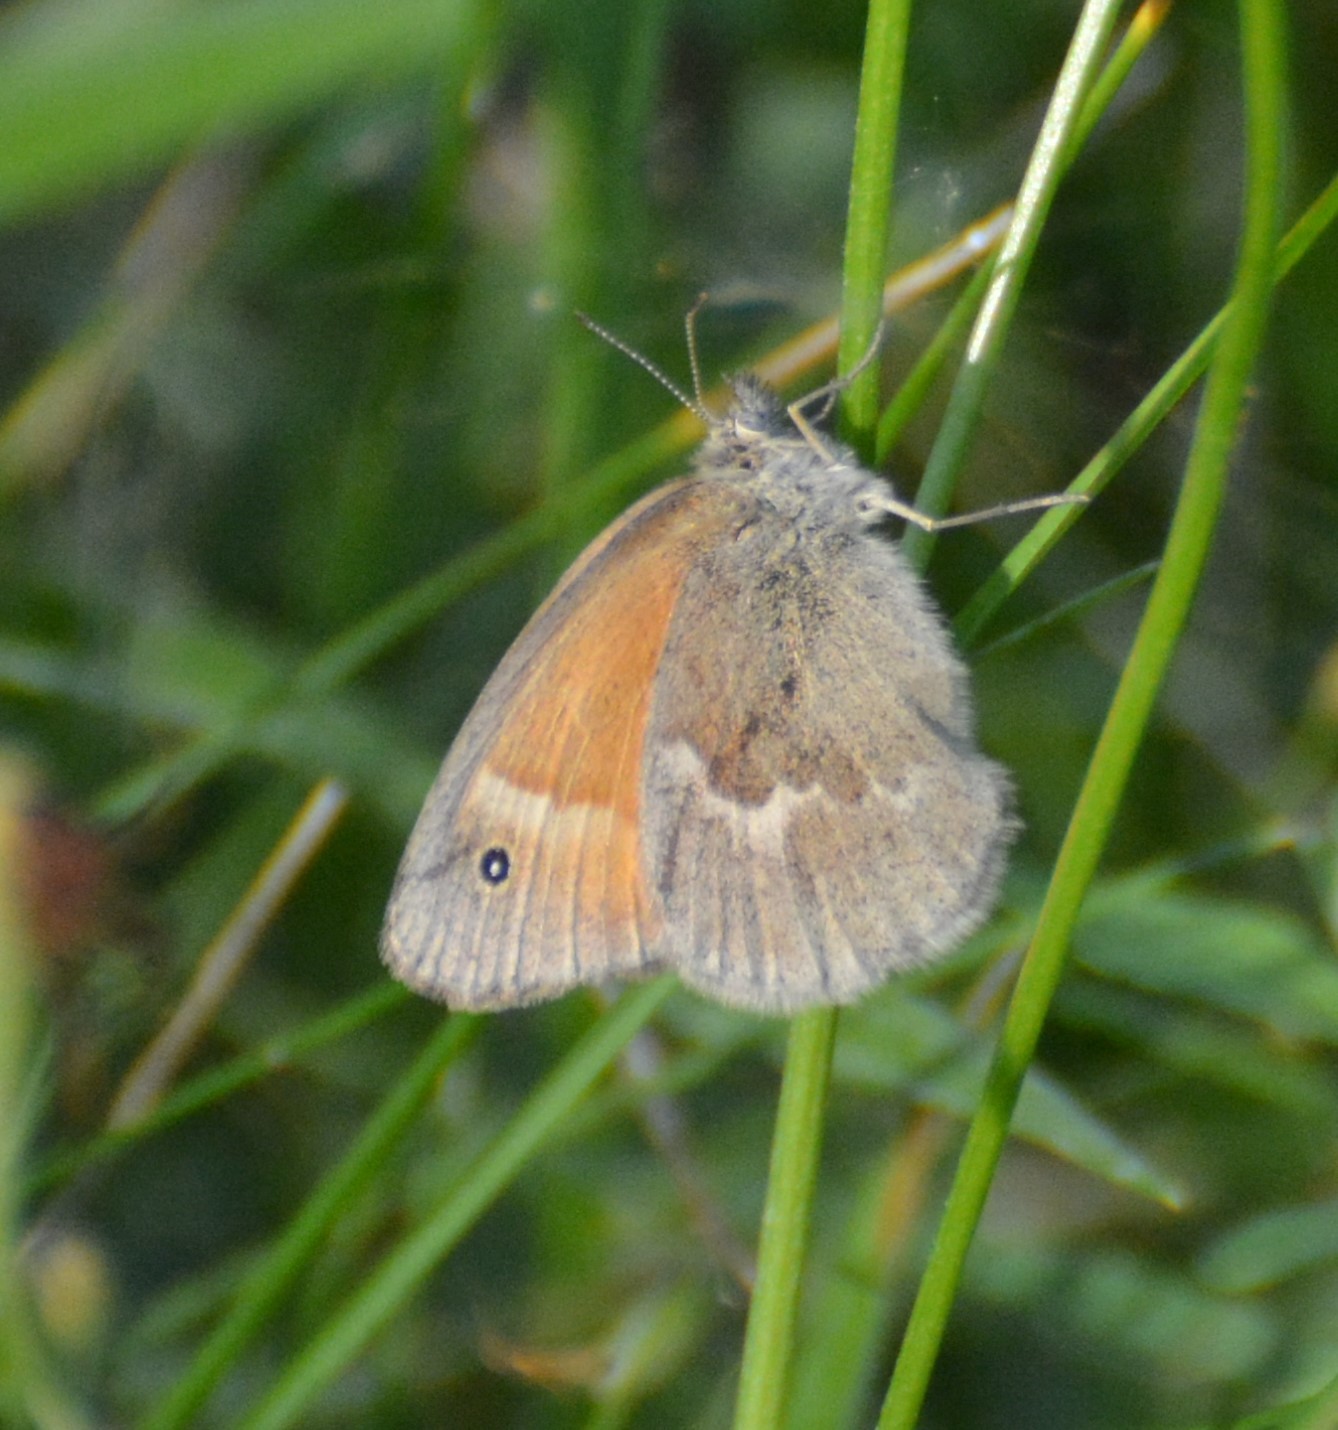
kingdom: Animalia
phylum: Arthropoda
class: Insecta
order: Lepidoptera
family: Nymphalidae
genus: Coenonympha
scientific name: Coenonympha california
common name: Common ringlet
